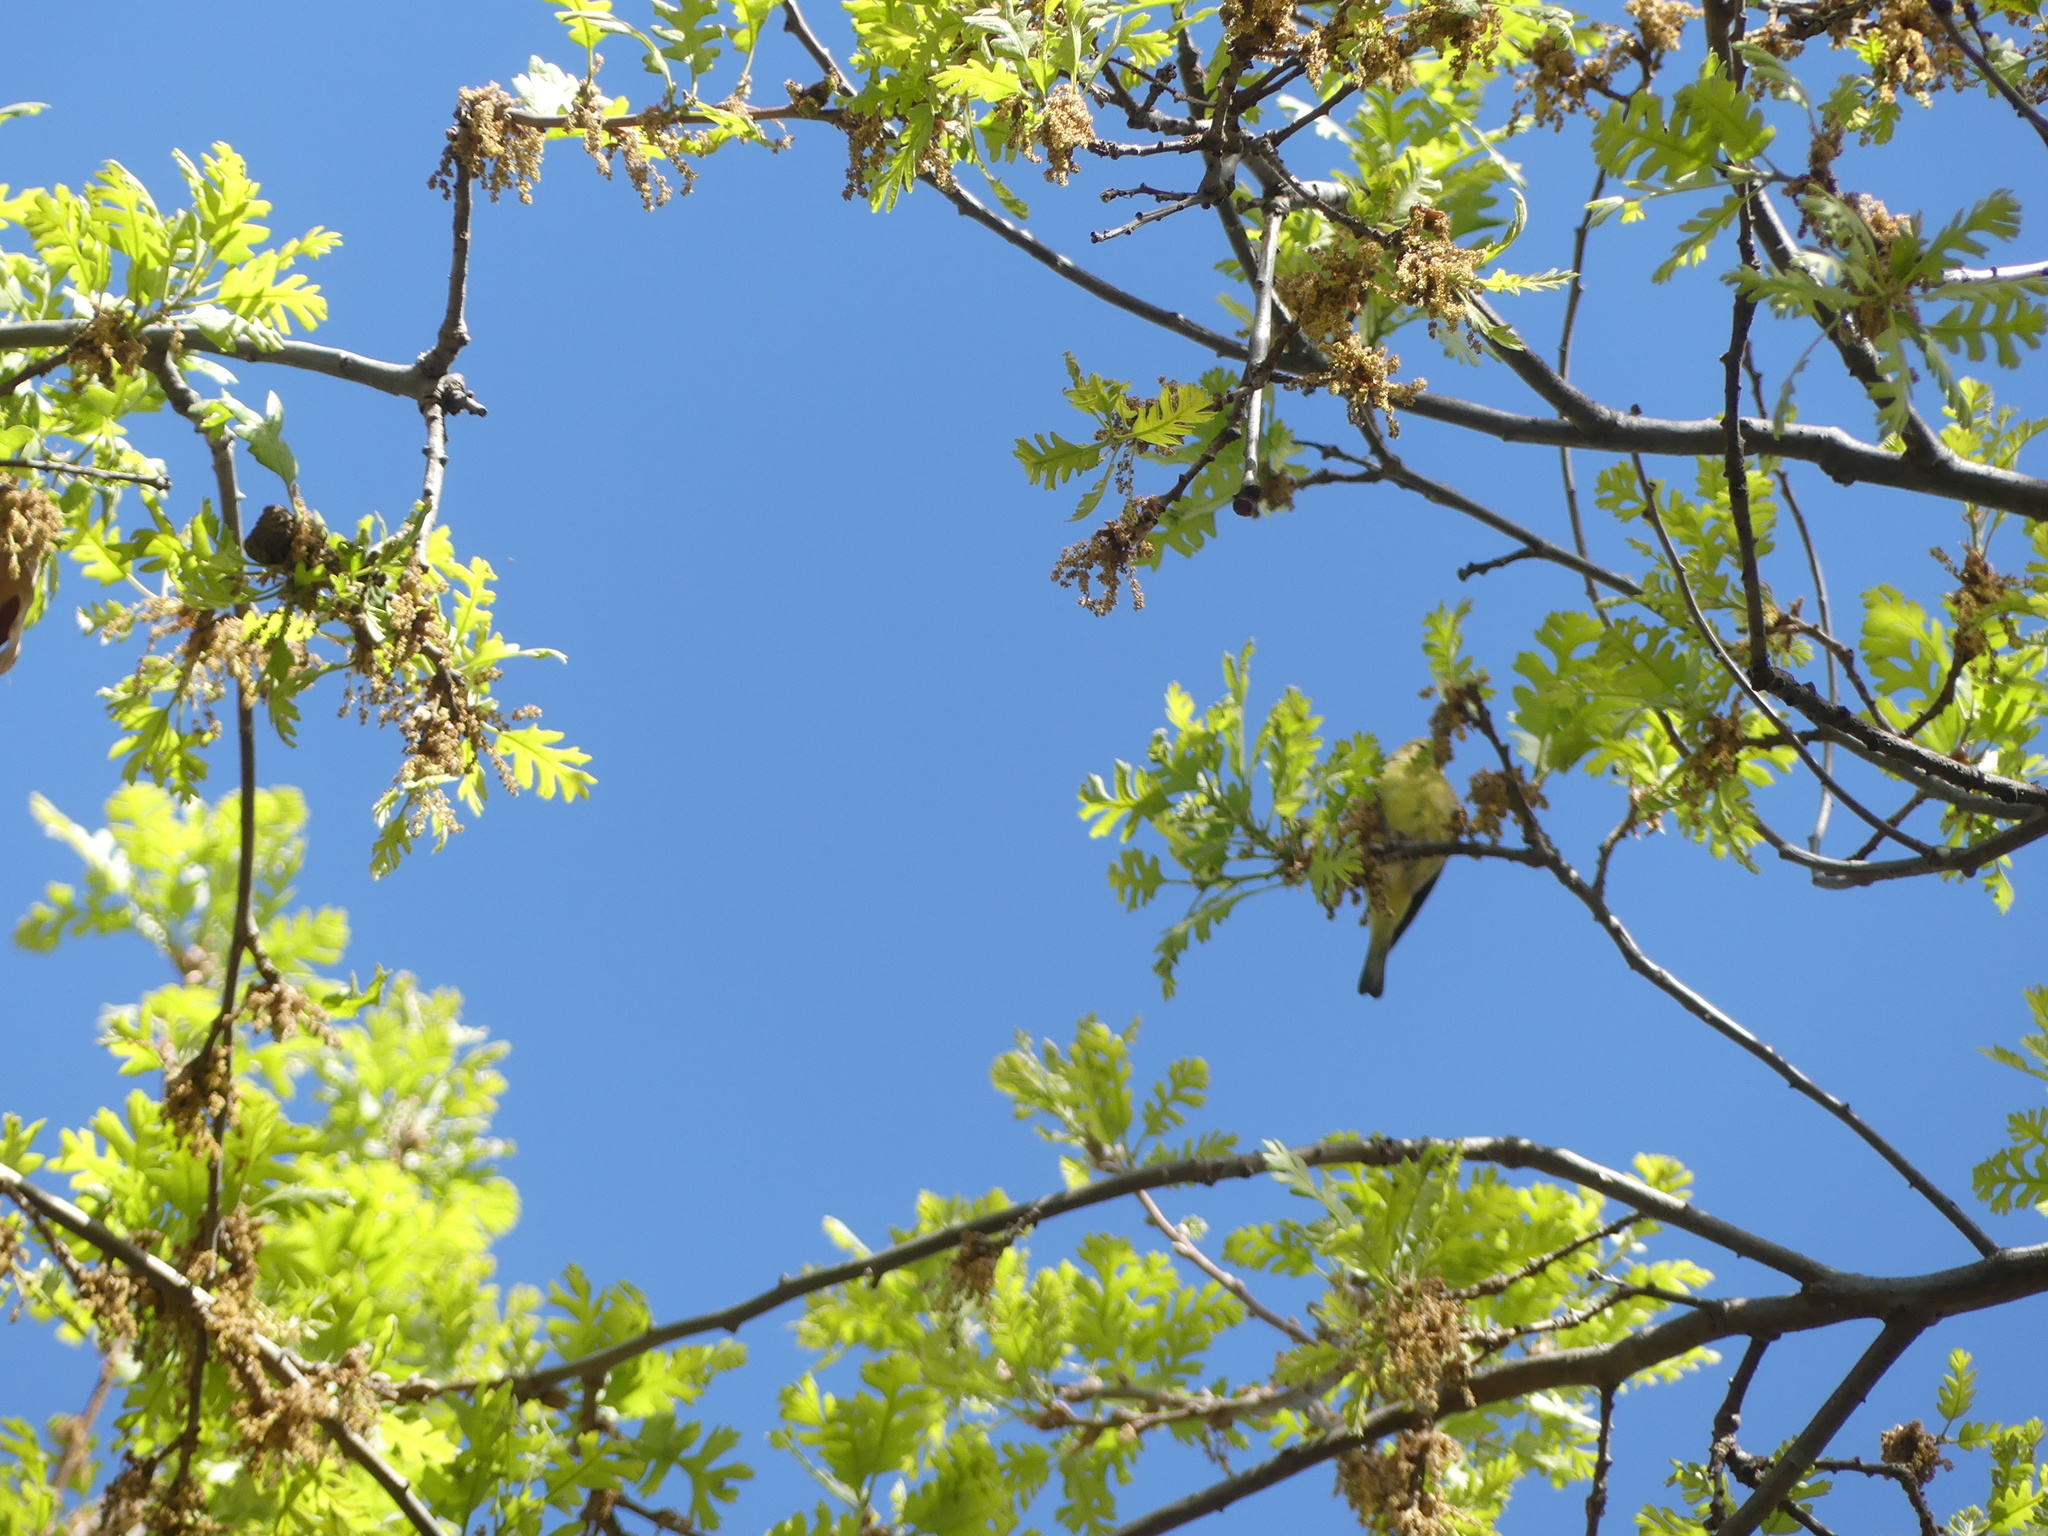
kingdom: Animalia
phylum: Chordata
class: Aves
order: Passeriformes
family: Fringillidae
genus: Spinus
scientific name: Spinus psaltria
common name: Lesser goldfinch
